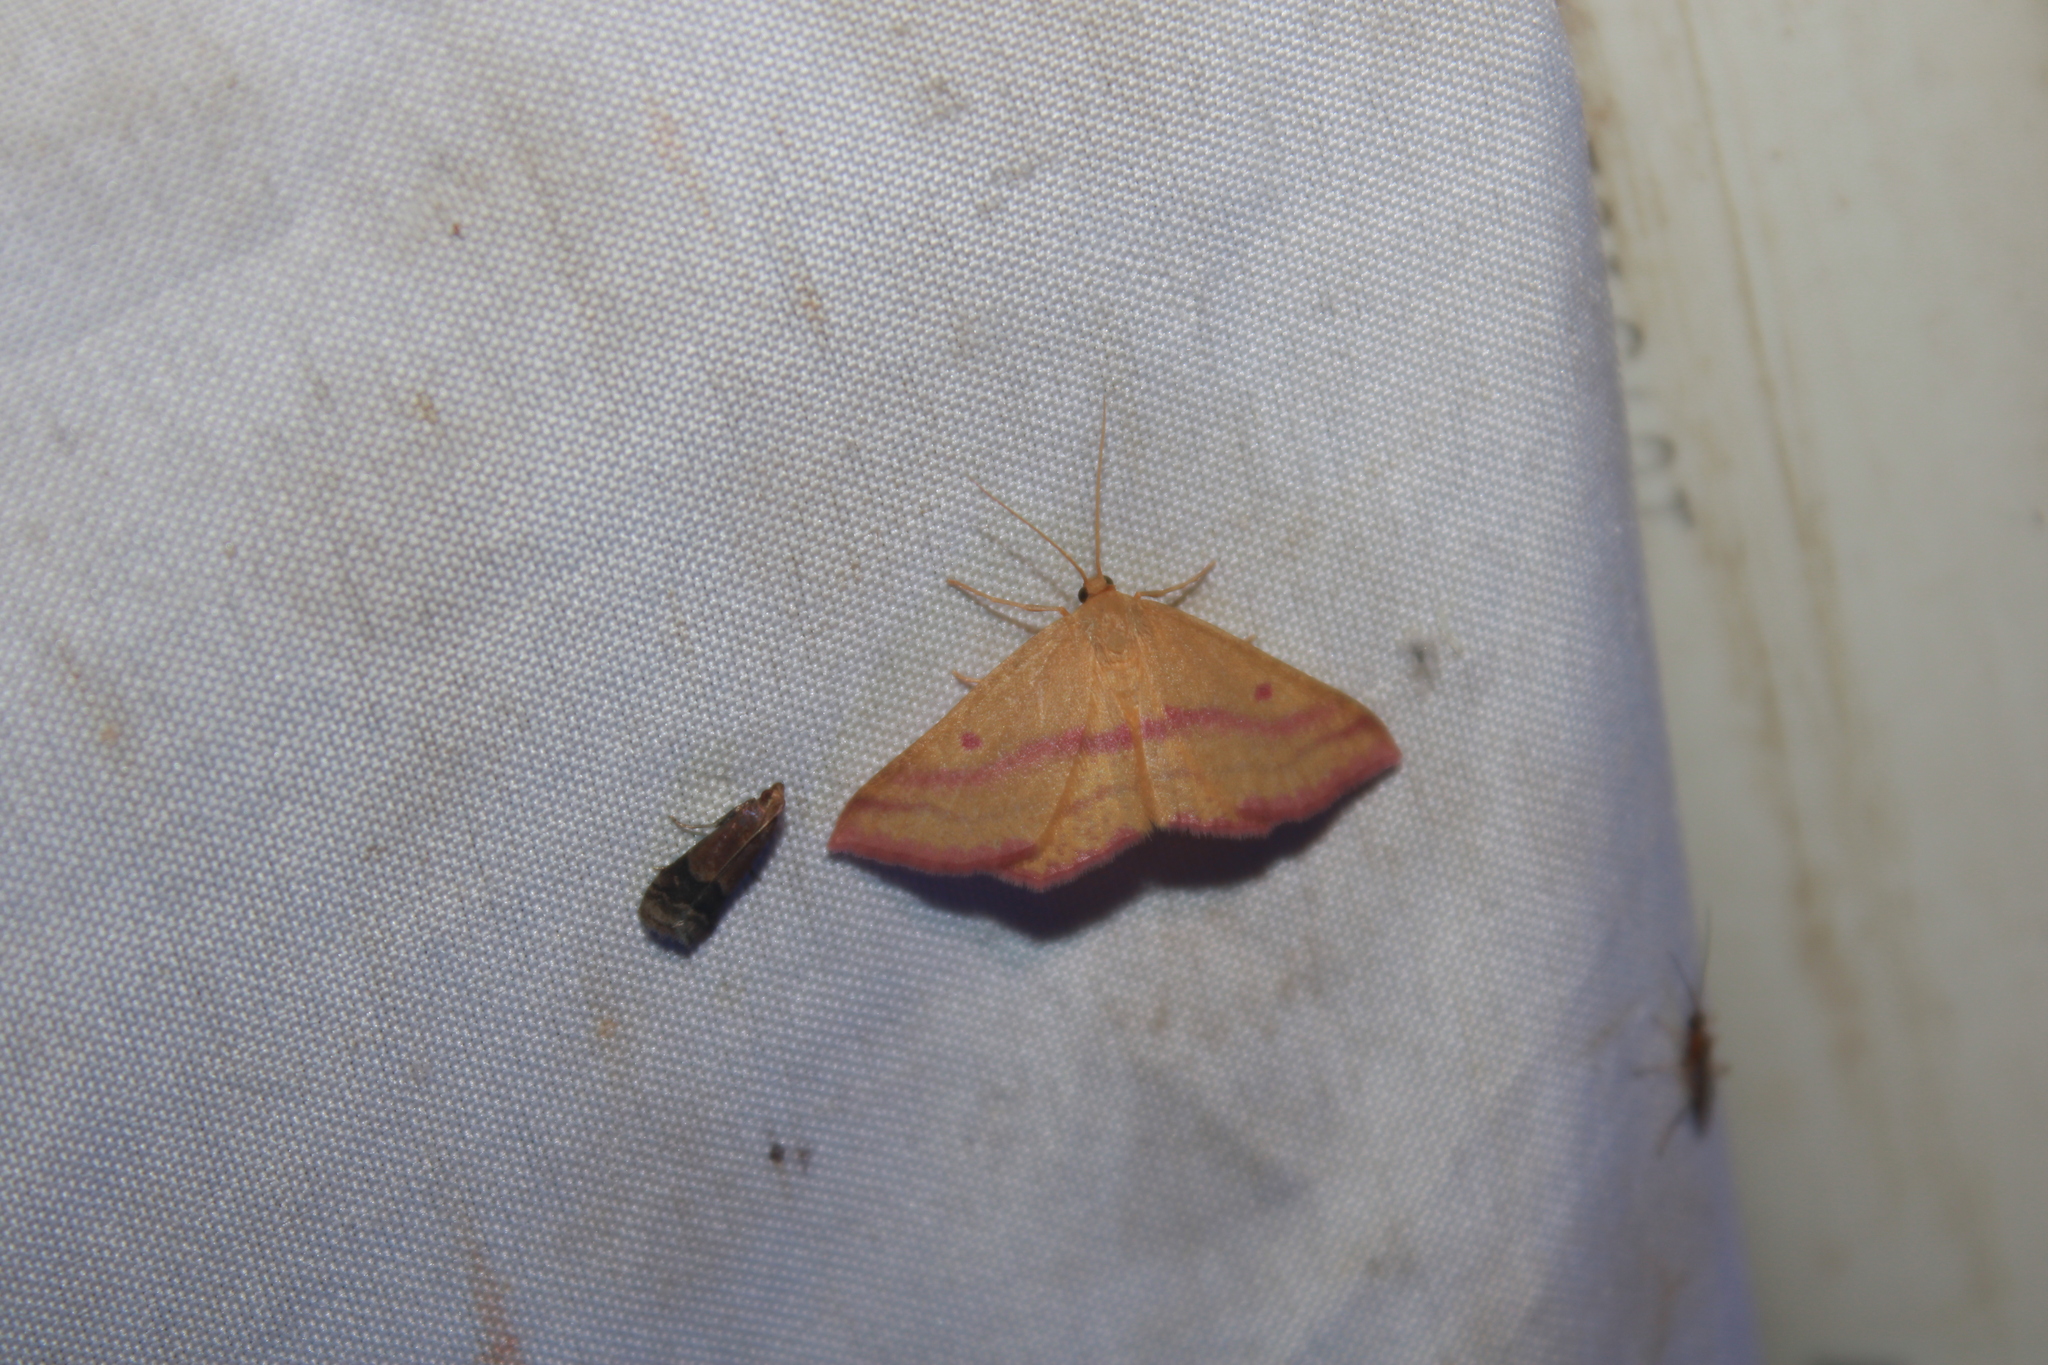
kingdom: Animalia
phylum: Arthropoda
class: Insecta
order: Lepidoptera
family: Geometridae
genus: Haematopis
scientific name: Haematopis grataria
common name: Chickweed geometer
